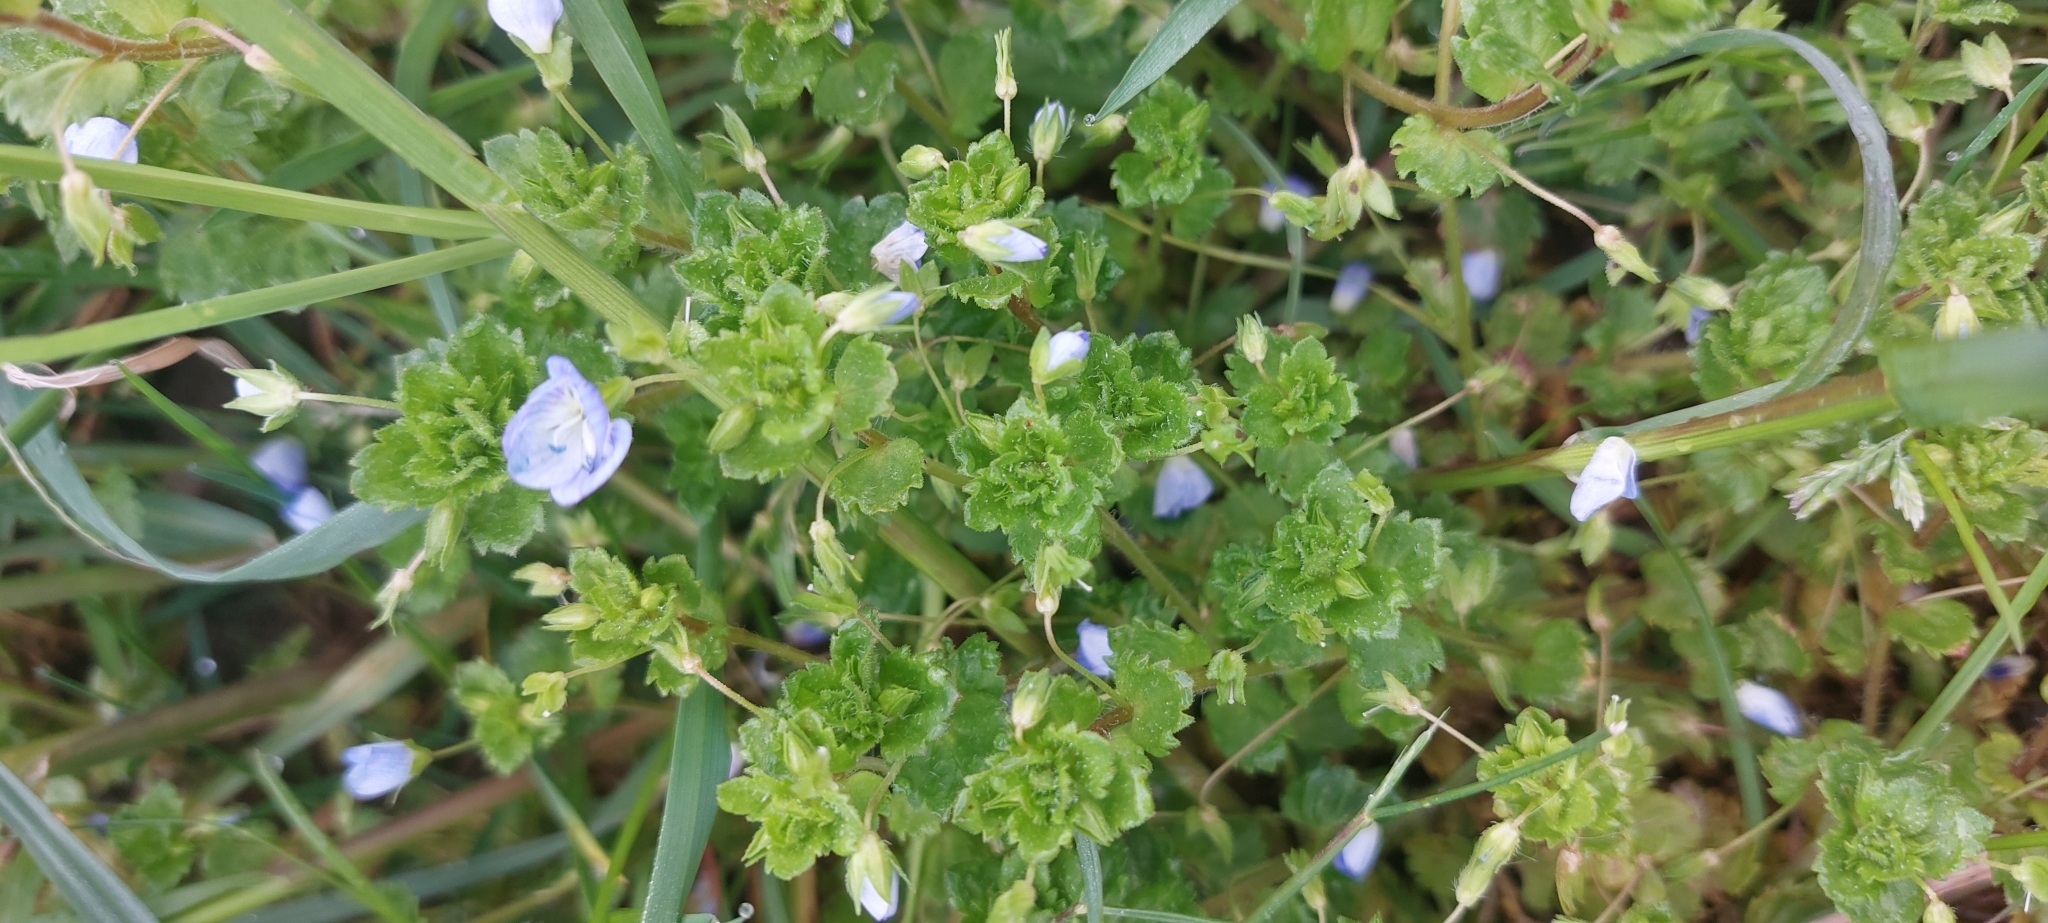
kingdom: Plantae
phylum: Tracheophyta
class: Magnoliopsida
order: Lamiales
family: Plantaginaceae
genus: Veronica
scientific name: Veronica persica
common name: Common field-speedwell
